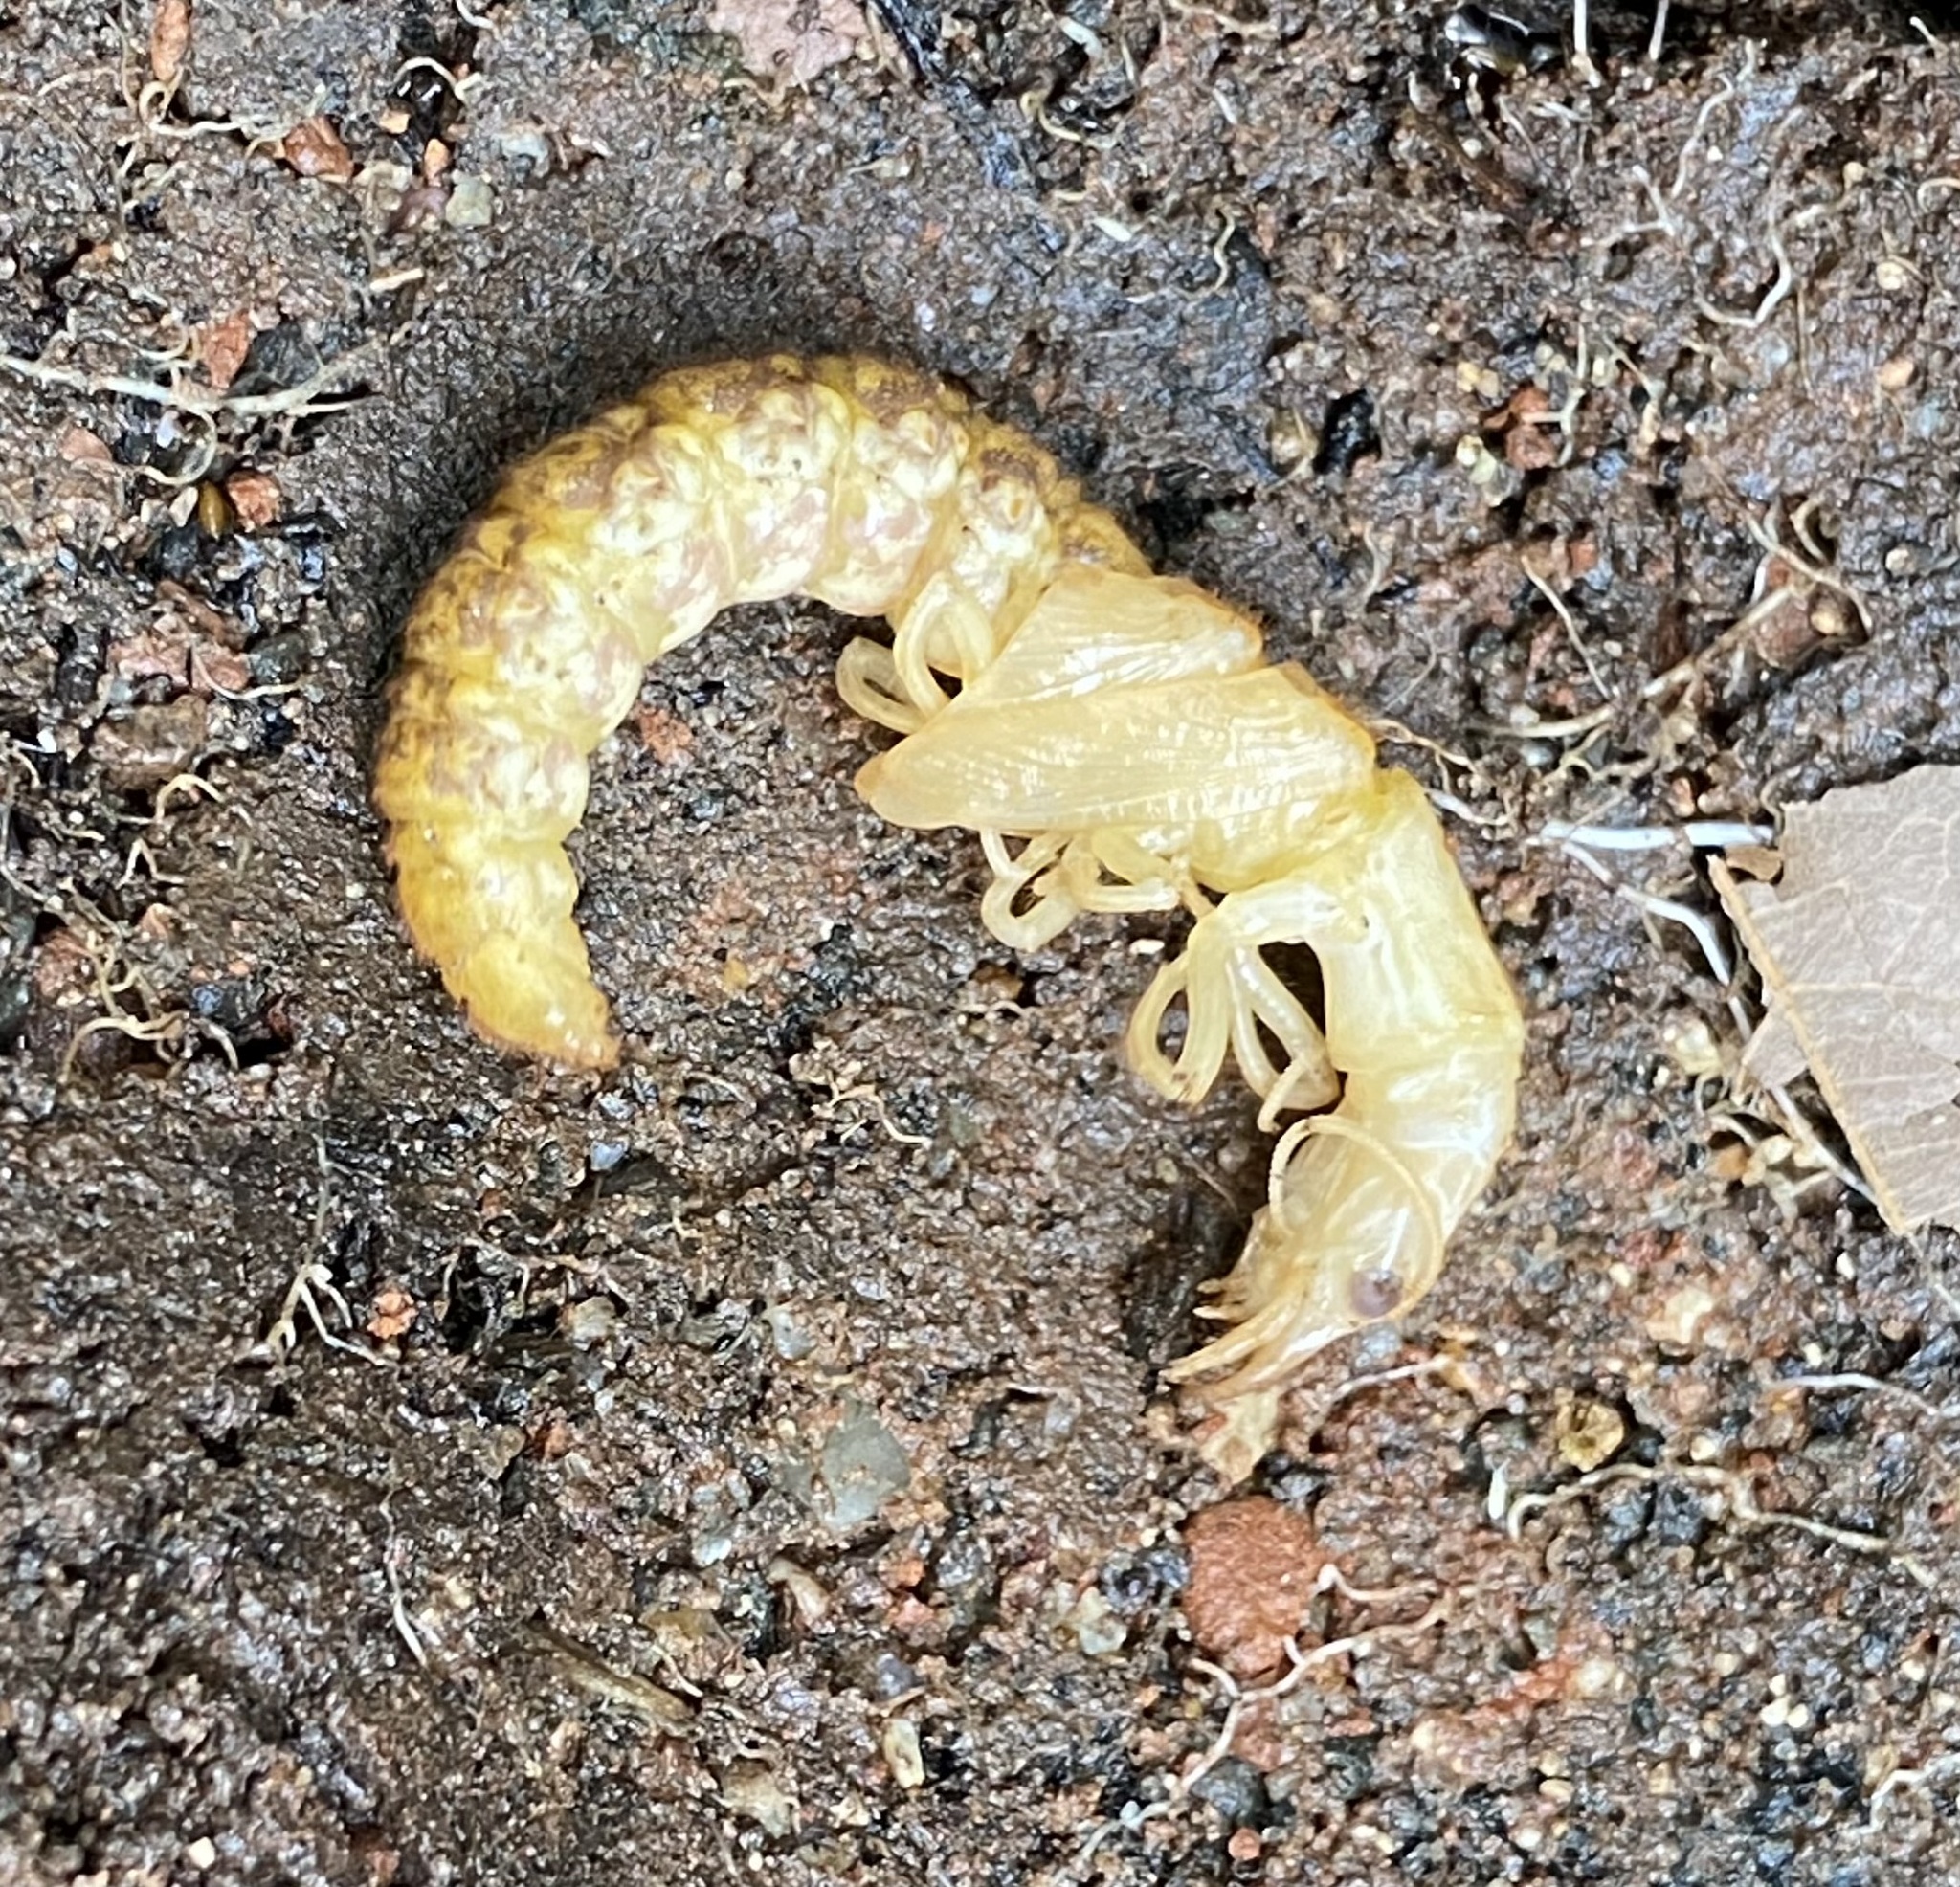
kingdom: Animalia
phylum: Arthropoda
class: Insecta
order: Megaloptera
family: Corydalidae
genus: Corydalus
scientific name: Corydalus texanus
